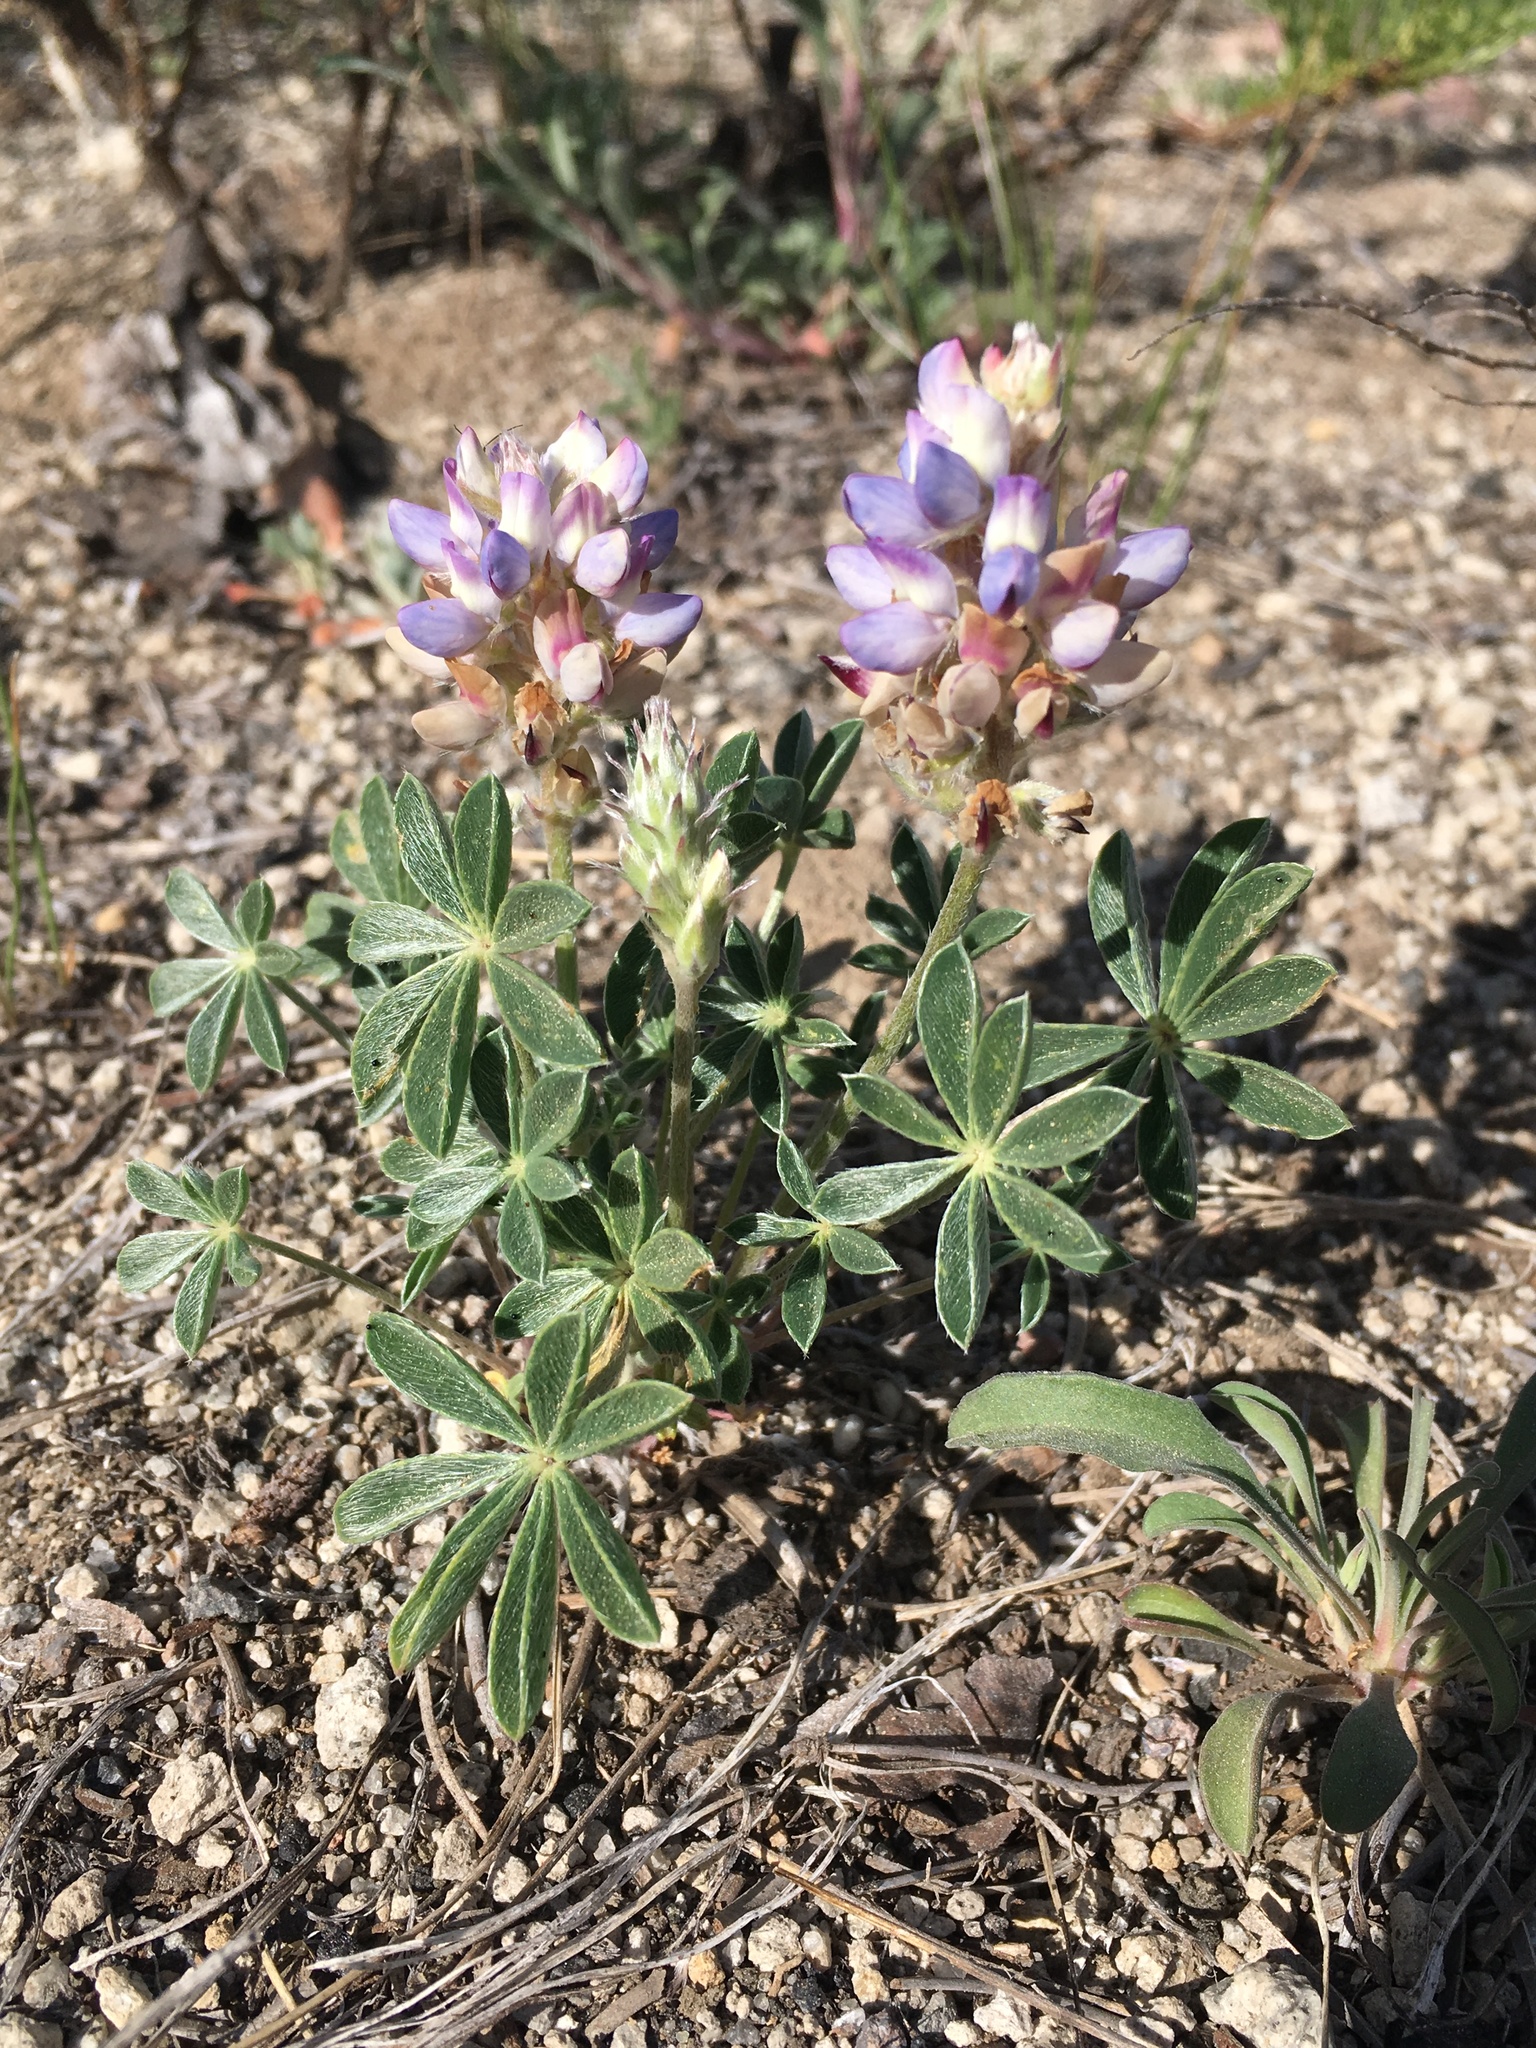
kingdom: Plantae
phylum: Tracheophyta
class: Magnoliopsida
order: Fabales
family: Fabaceae
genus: Lupinus
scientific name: Lupinus lepidus
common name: Prairie lupine
